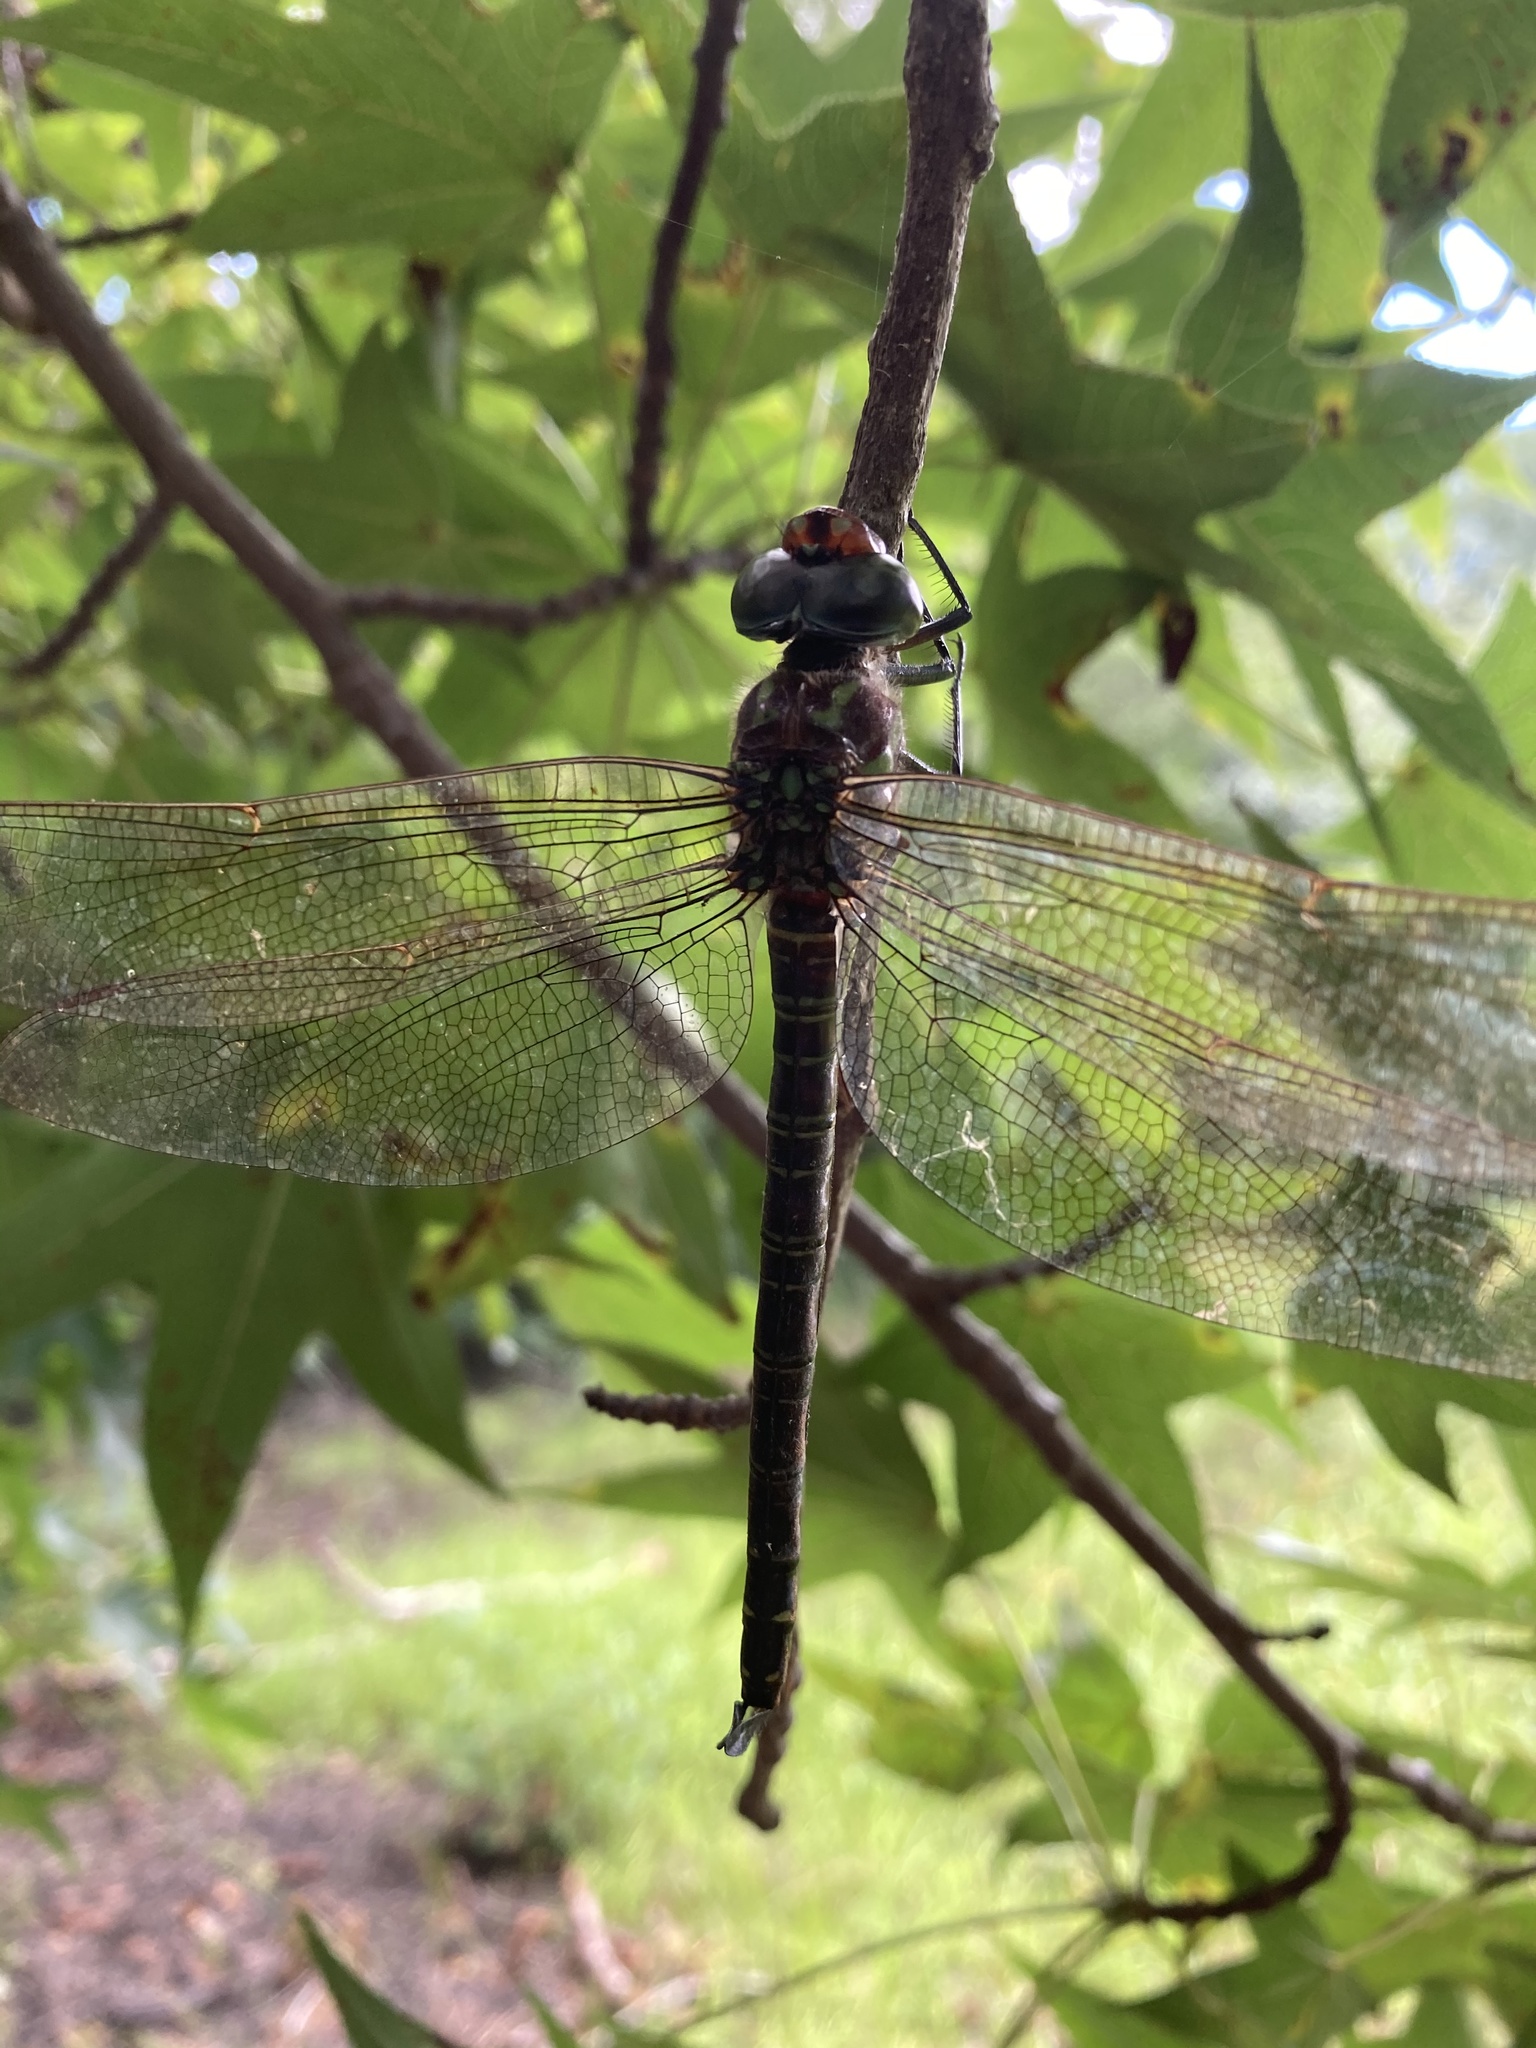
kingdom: Animalia
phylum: Arthropoda
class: Insecta
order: Odonata
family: Aeshnidae
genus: Epiaeschna
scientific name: Epiaeschna heros
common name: Swamp darner
